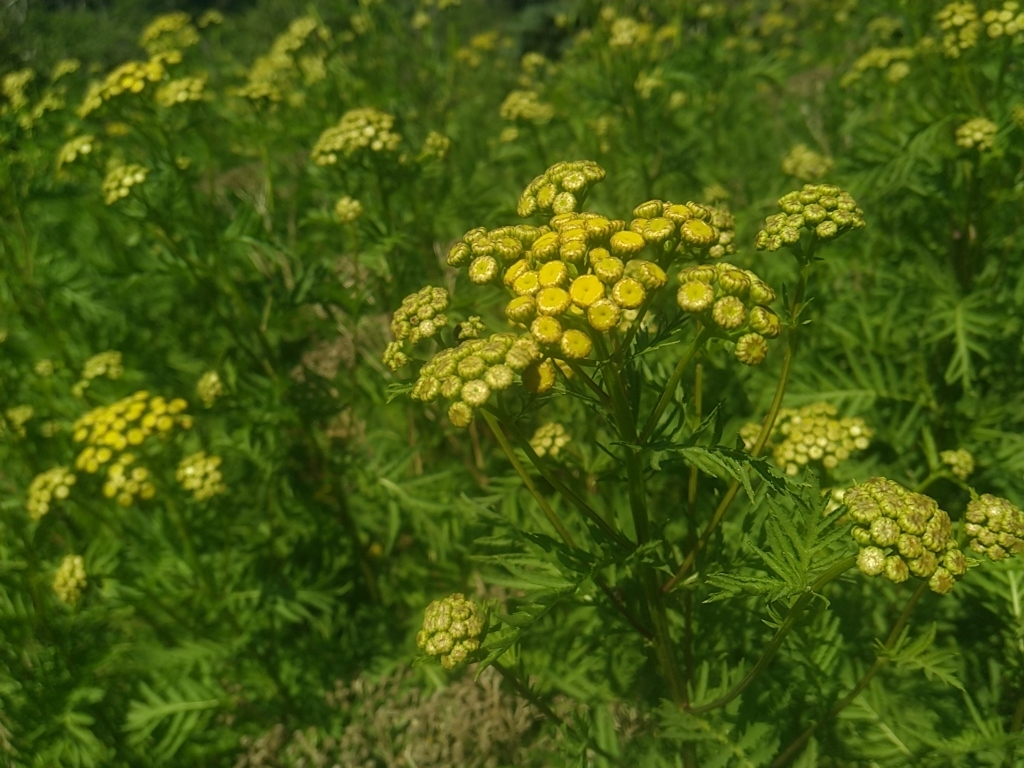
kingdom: Plantae
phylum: Tracheophyta
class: Magnoliopsida
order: Asterales
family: Asteraceae
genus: Tanacetum
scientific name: Tanacetum vulgare
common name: Common tansy
